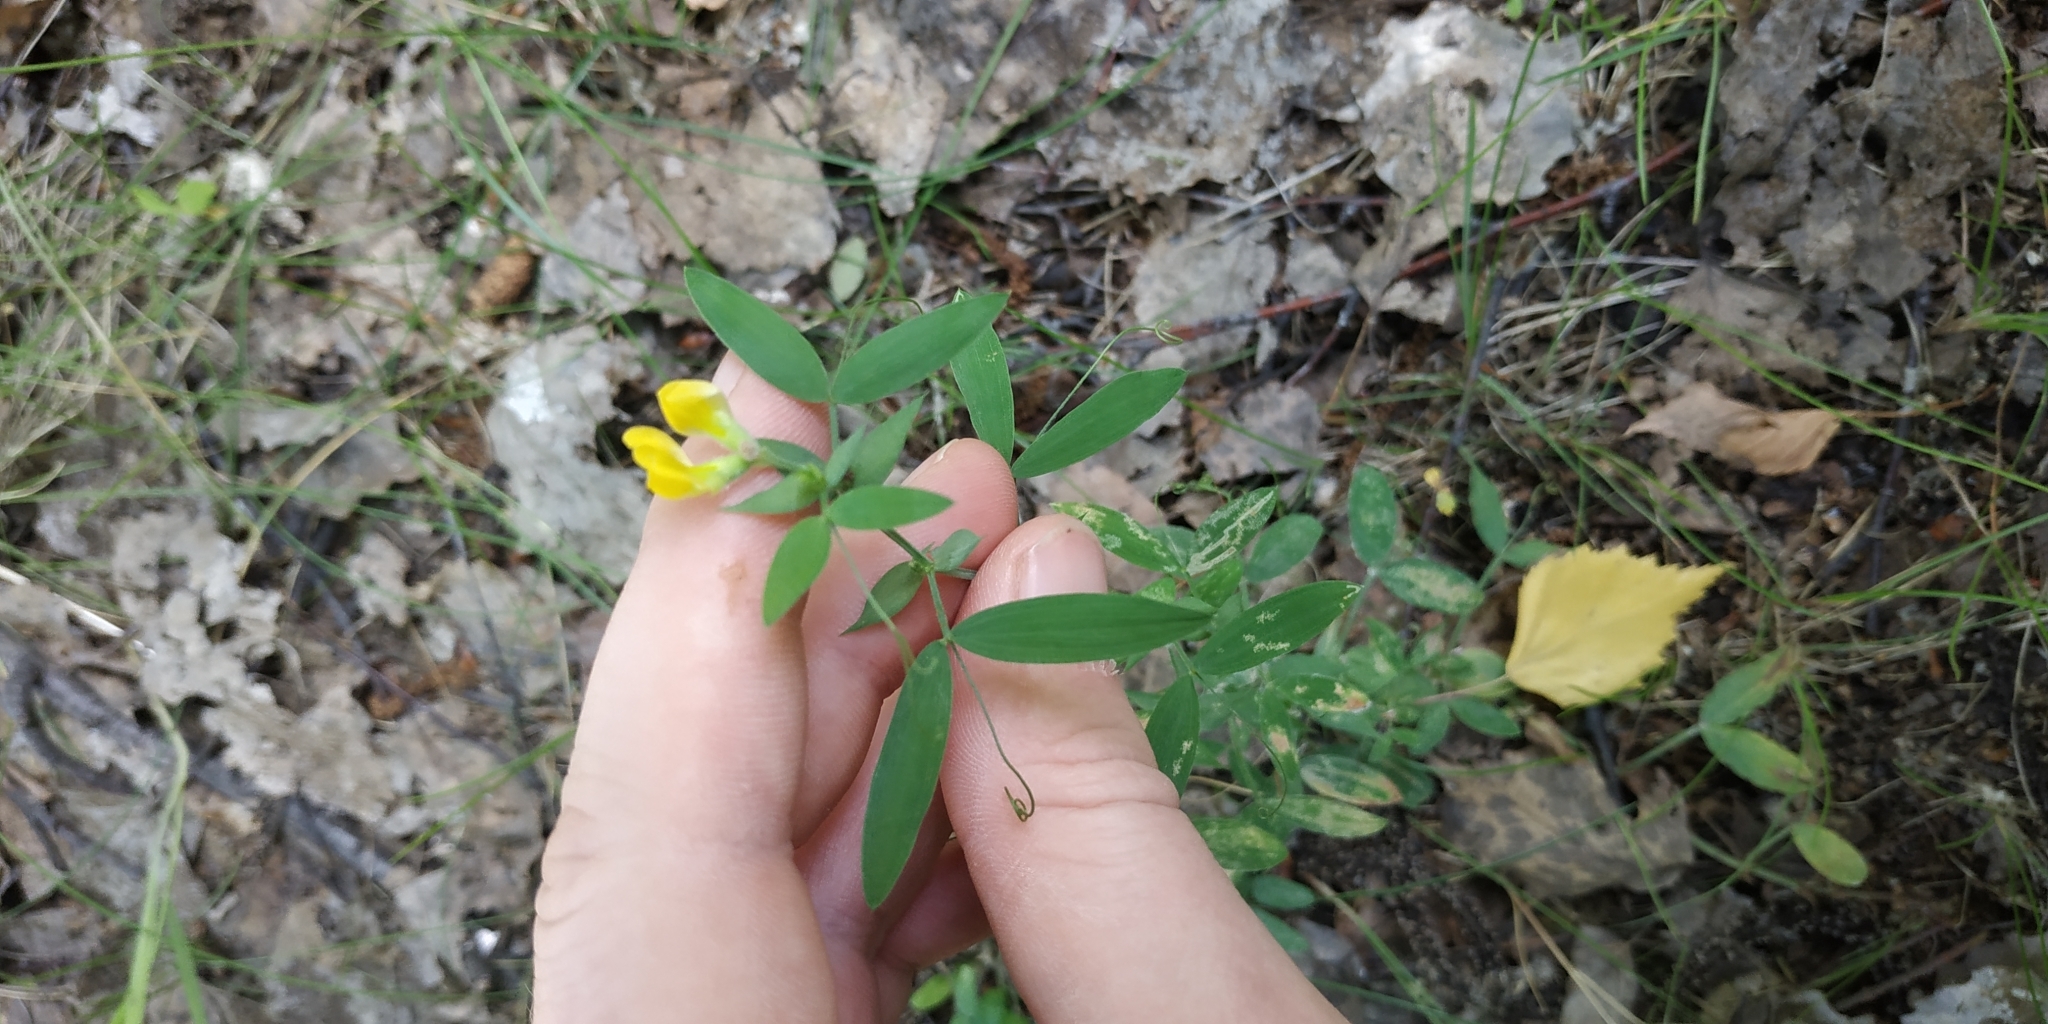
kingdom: Plantae
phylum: Tracheophyta
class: Magnoliopsida
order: Fabales
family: Fabaceae
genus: Lathyrus
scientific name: Lathyrus pratensis
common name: Meadow vetchling
